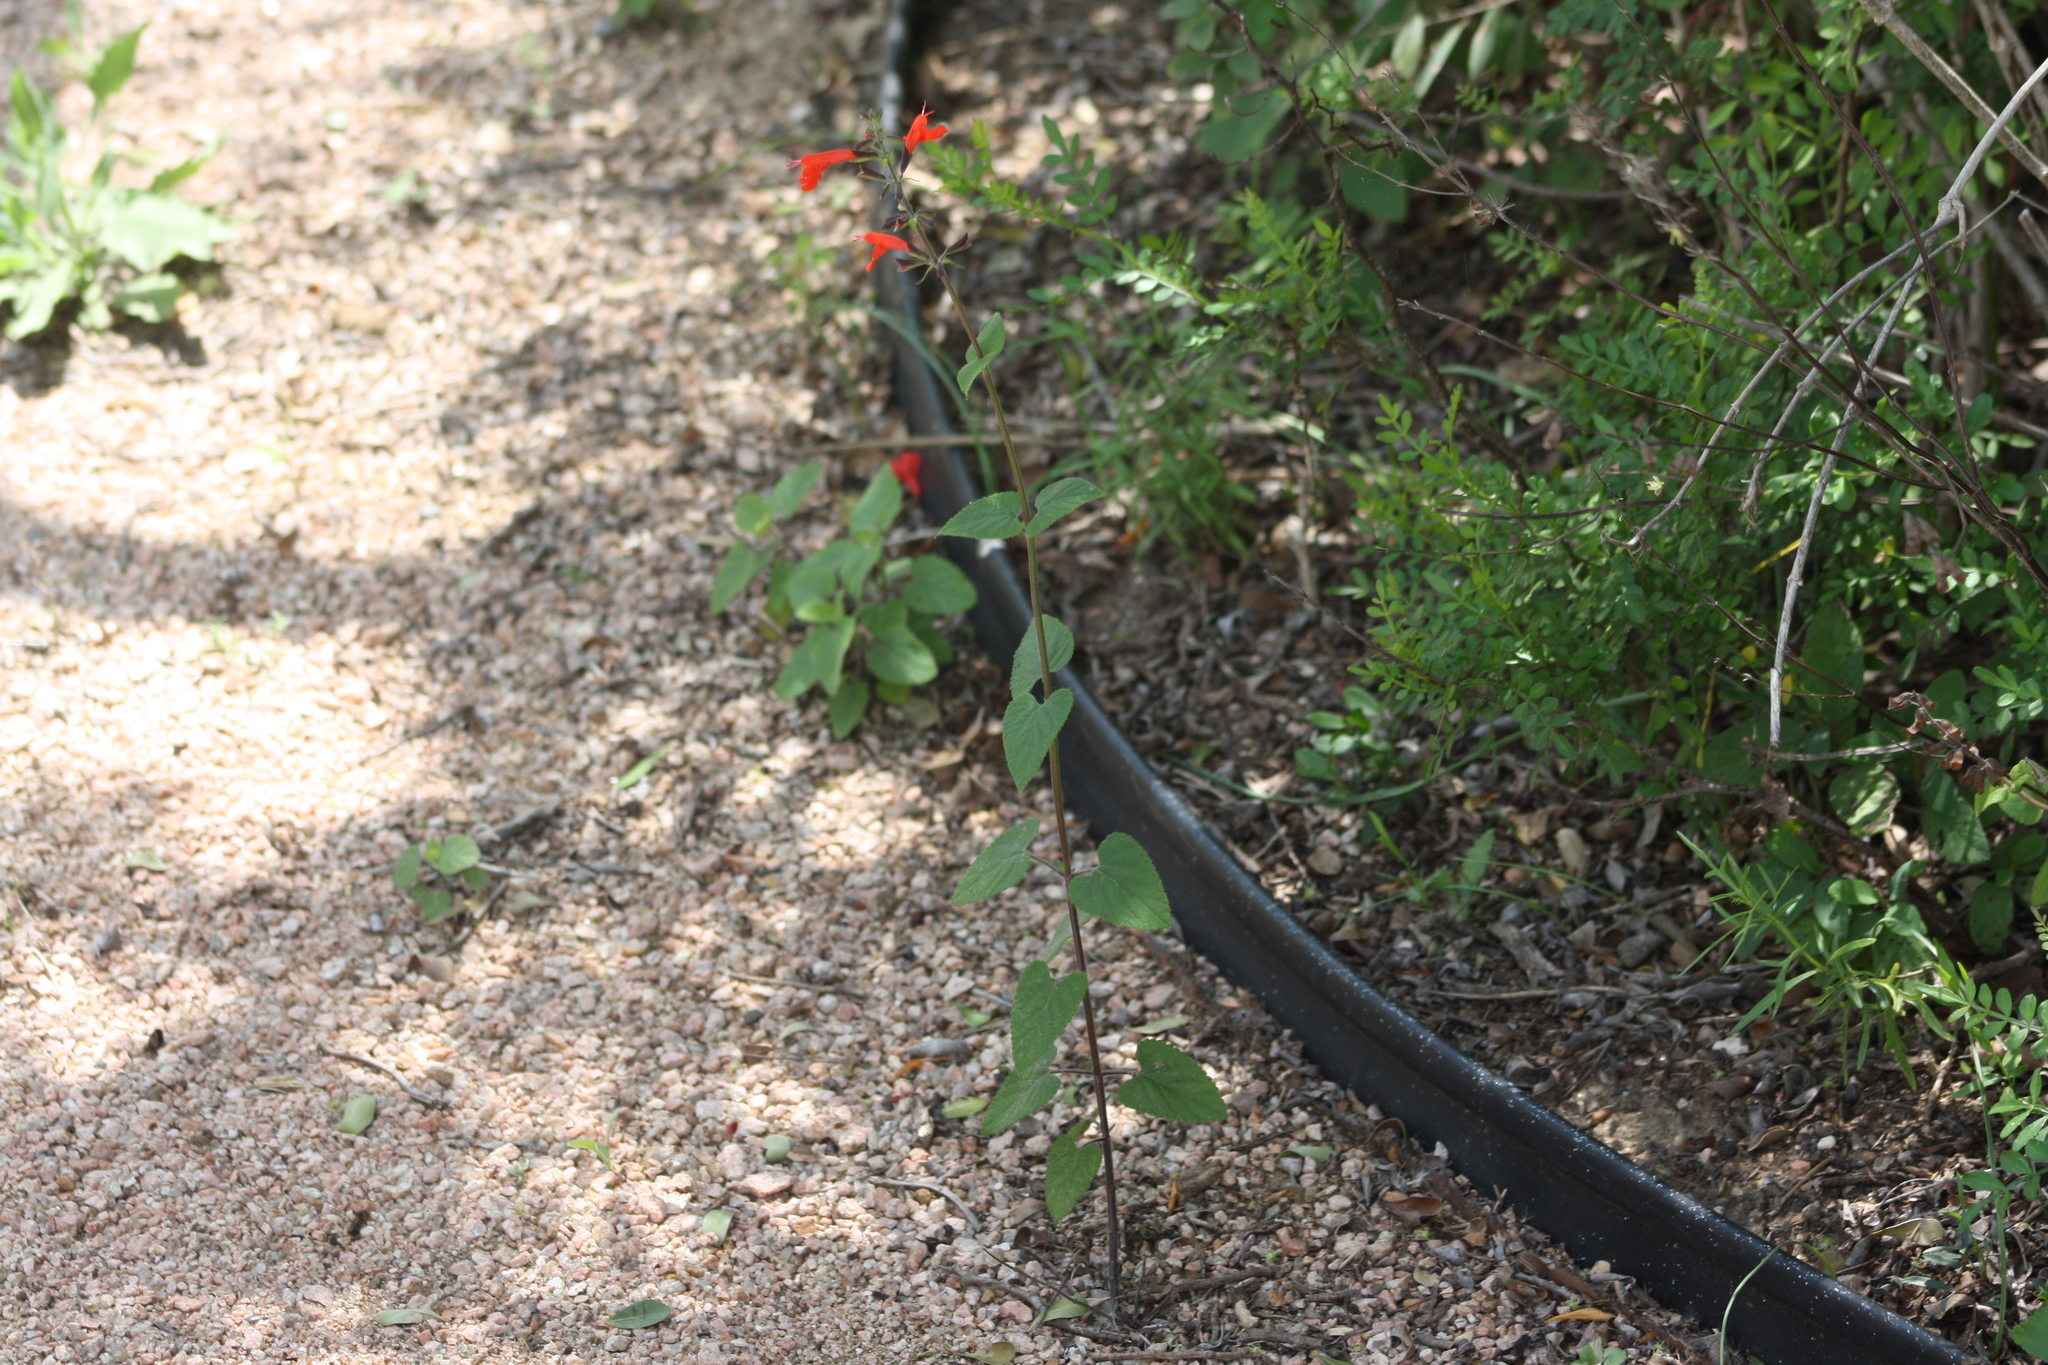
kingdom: Plantae
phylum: Tracheophyta
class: Magnoliopsida
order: Lamiales
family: Lamiaceae
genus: Salvia
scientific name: Salvia coccinea
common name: Blood sage
